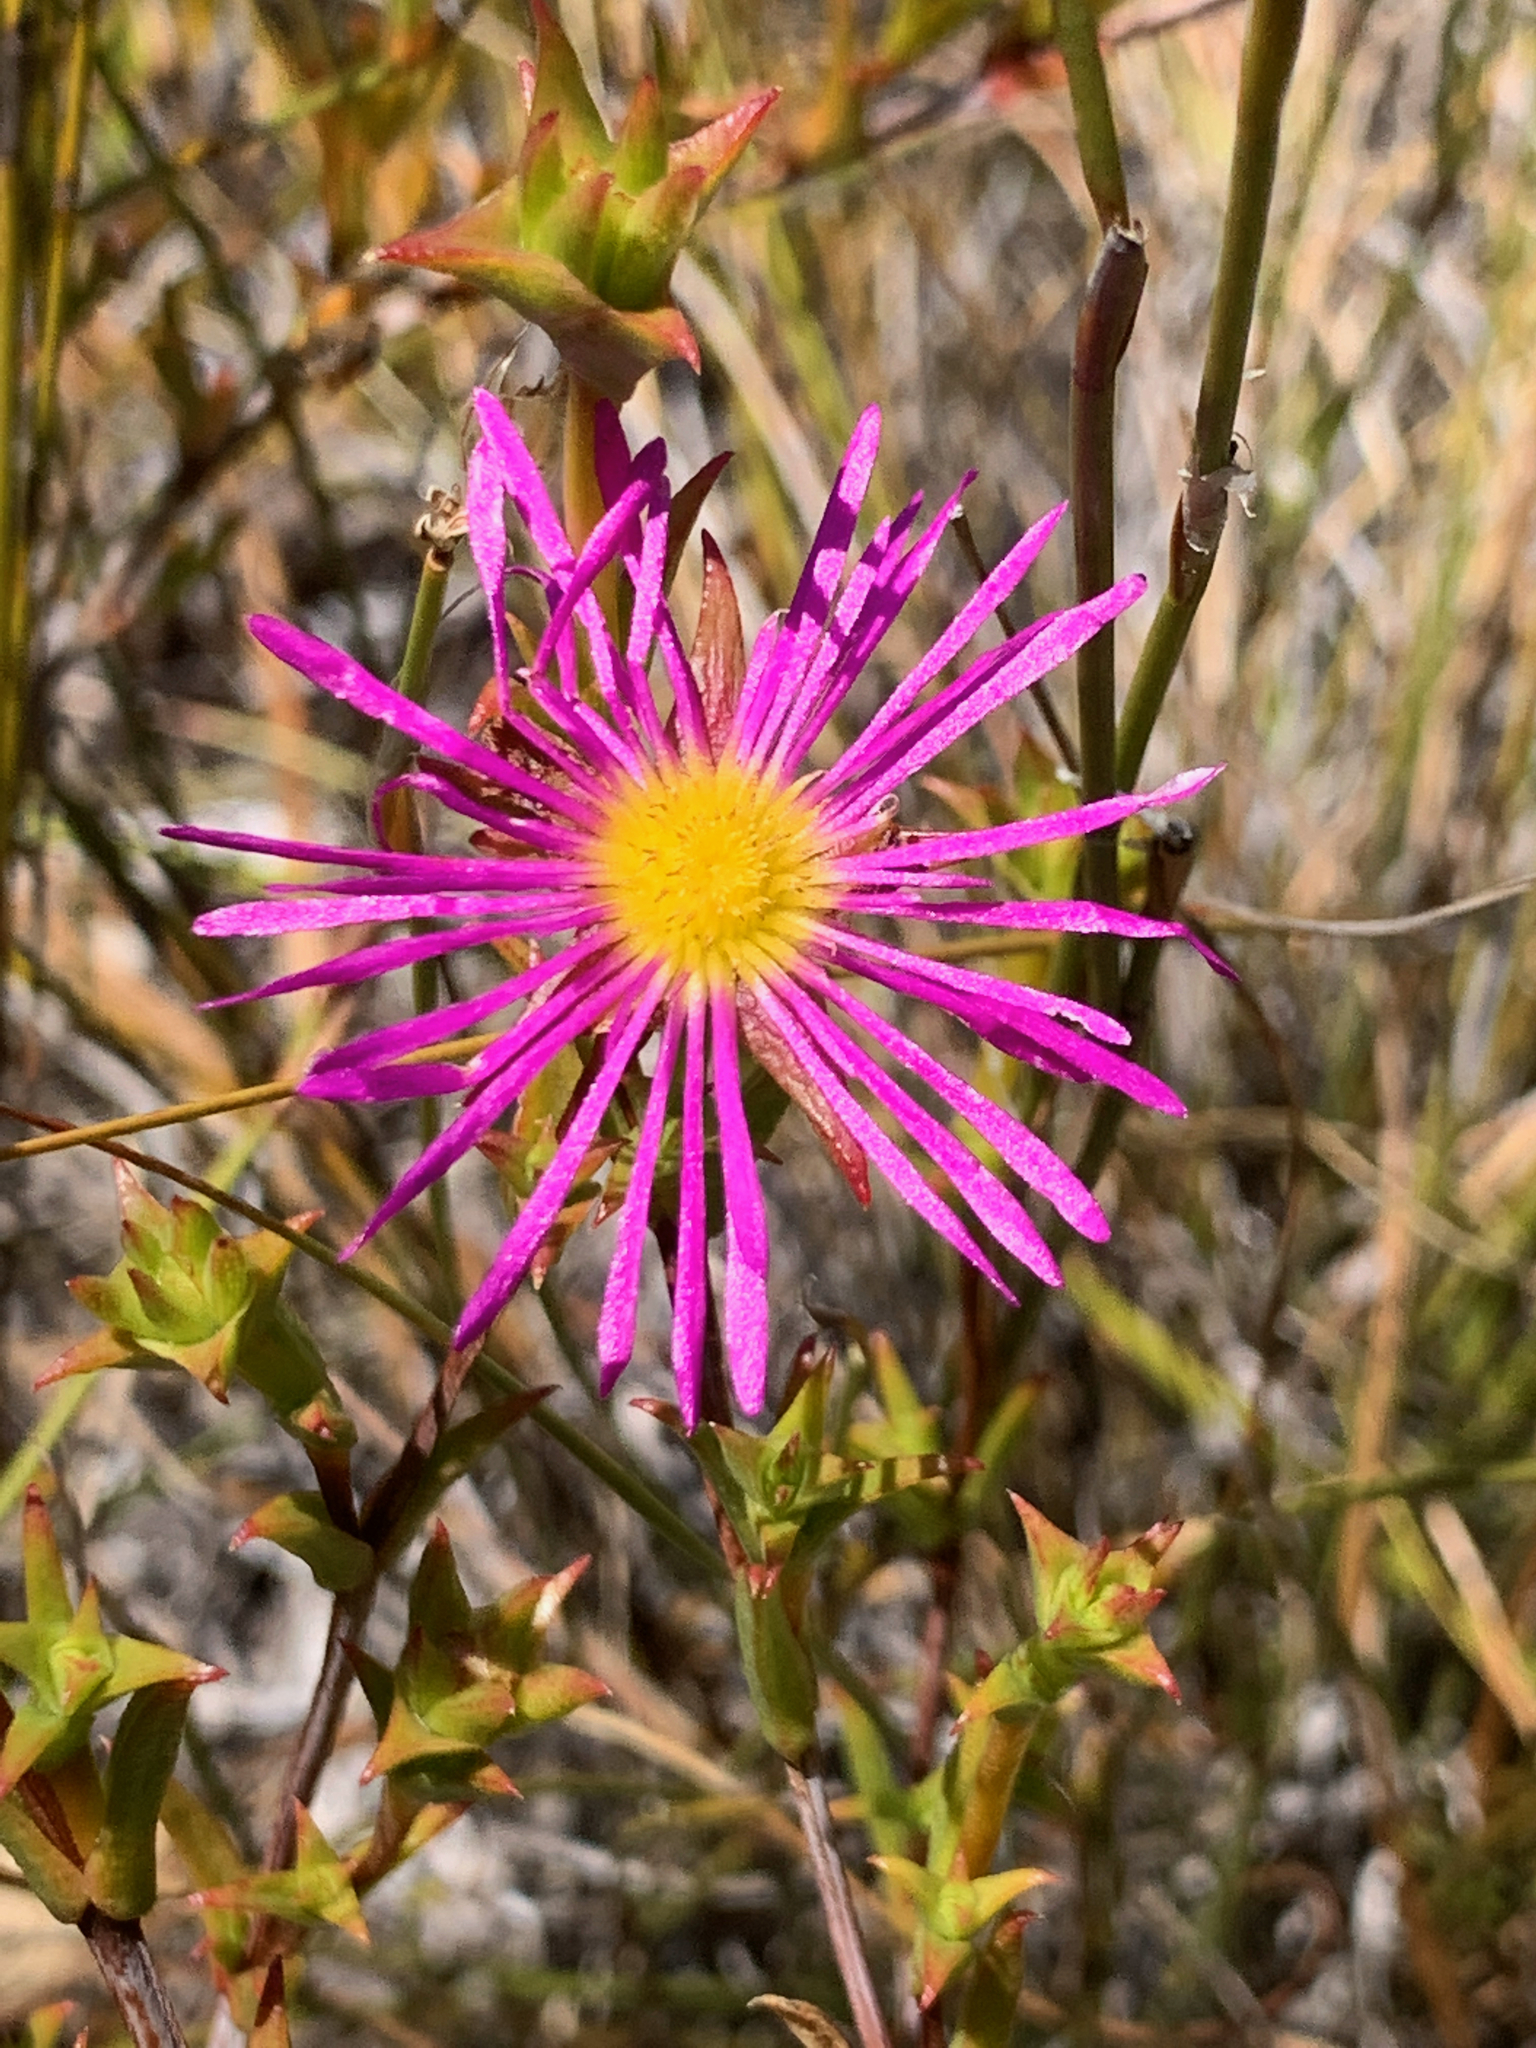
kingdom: Plantae
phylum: Tracheophyta
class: Magnoliopsida
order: Caryophyllales
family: Aizoaceae
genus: Erepsia
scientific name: Erepsia anceps
